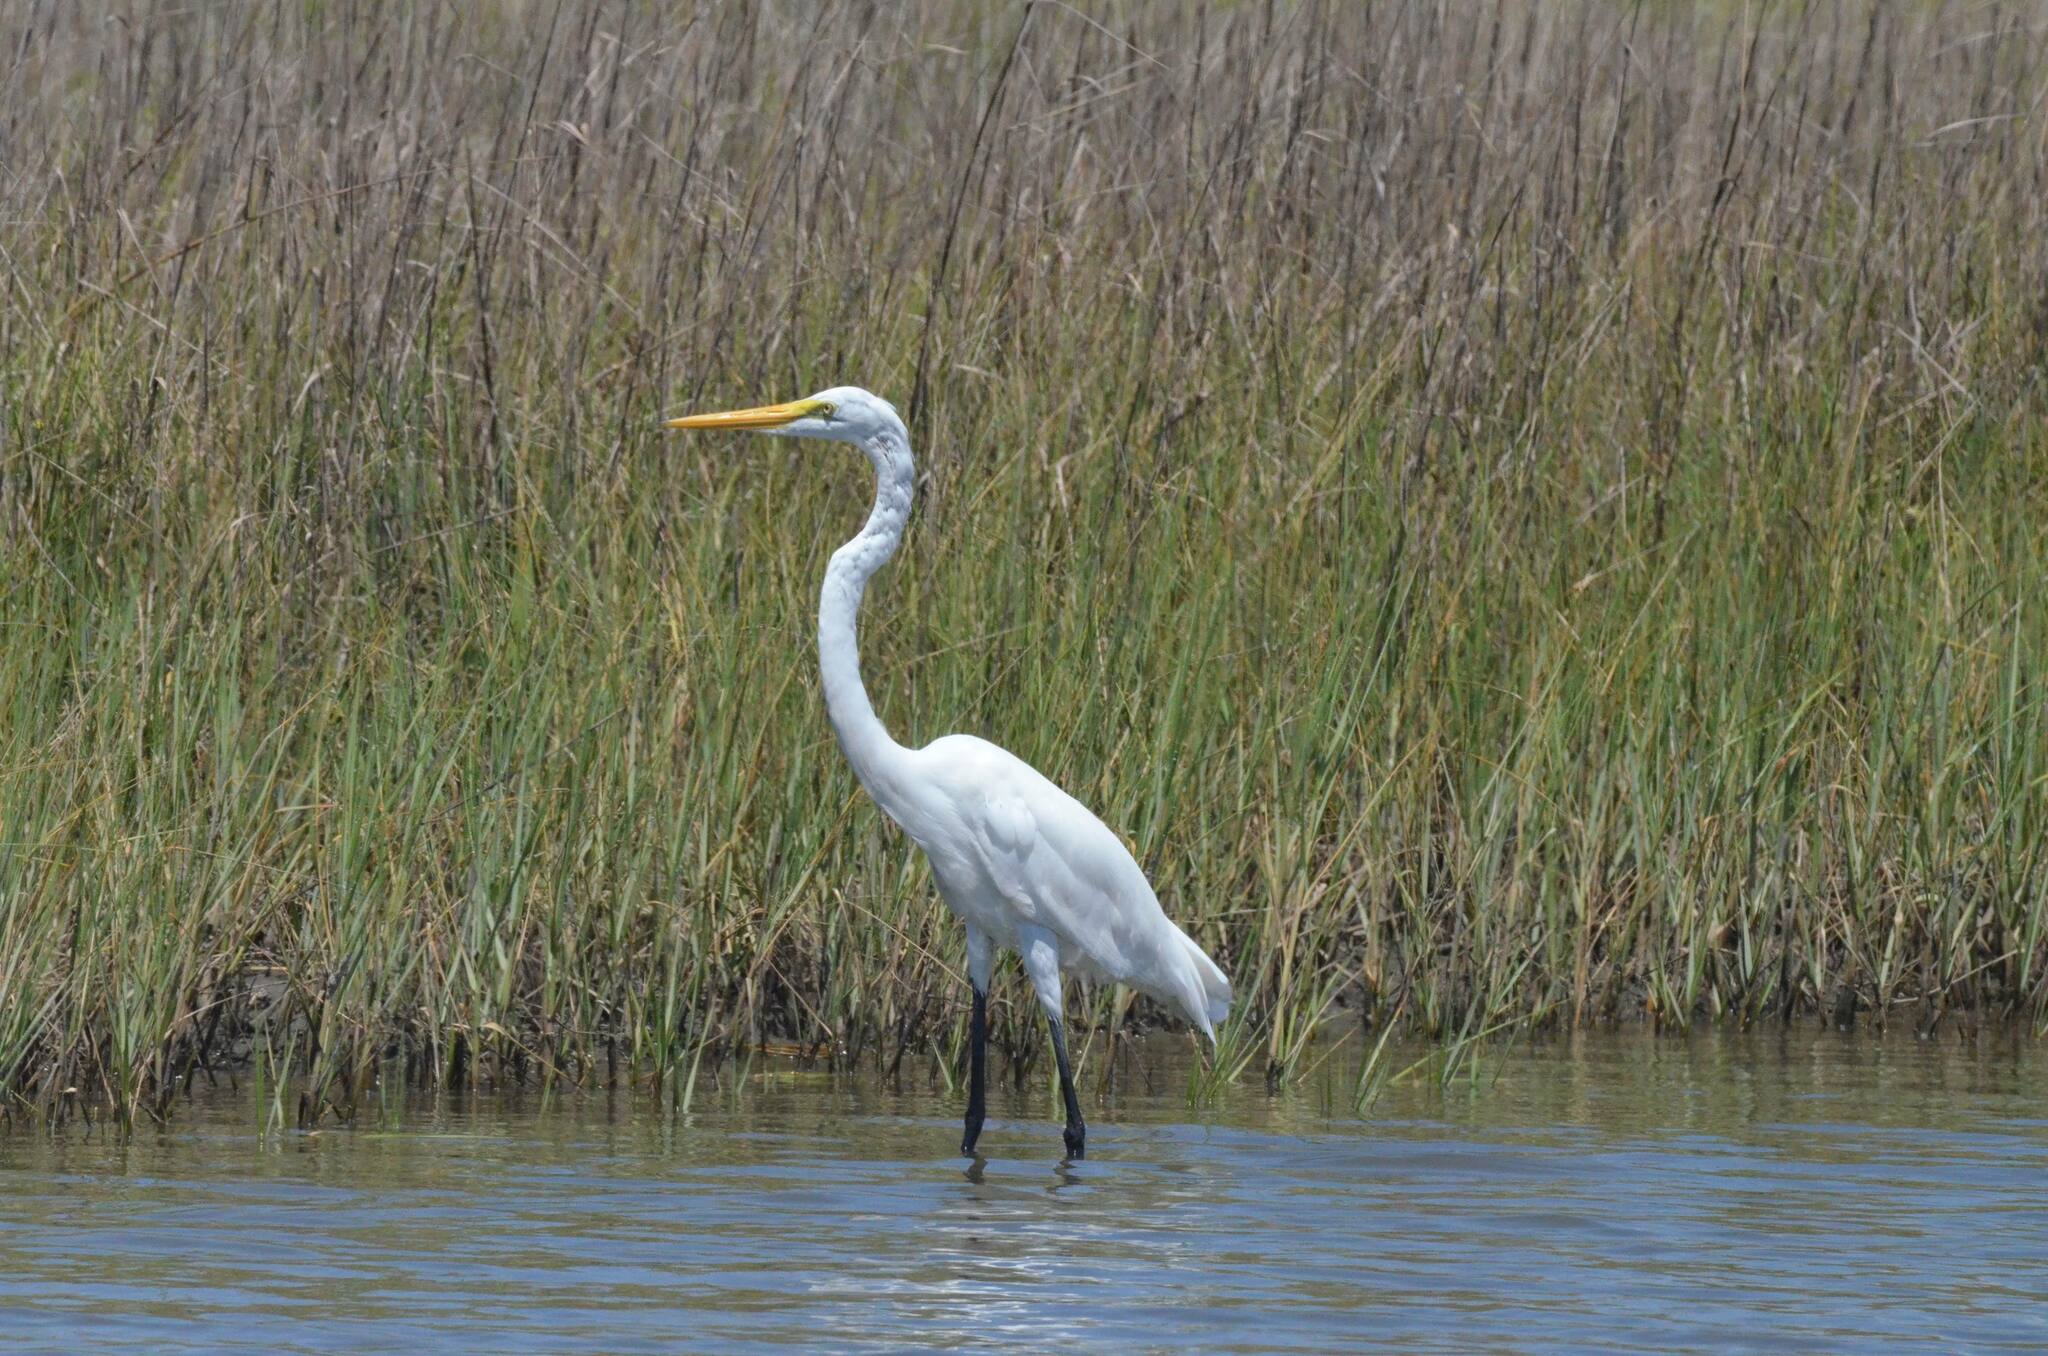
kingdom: Animalia
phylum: Chordata
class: Aves
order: Pelecaniformes
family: Ardeidae
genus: Ardea
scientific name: Ardea alba
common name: Great egret
